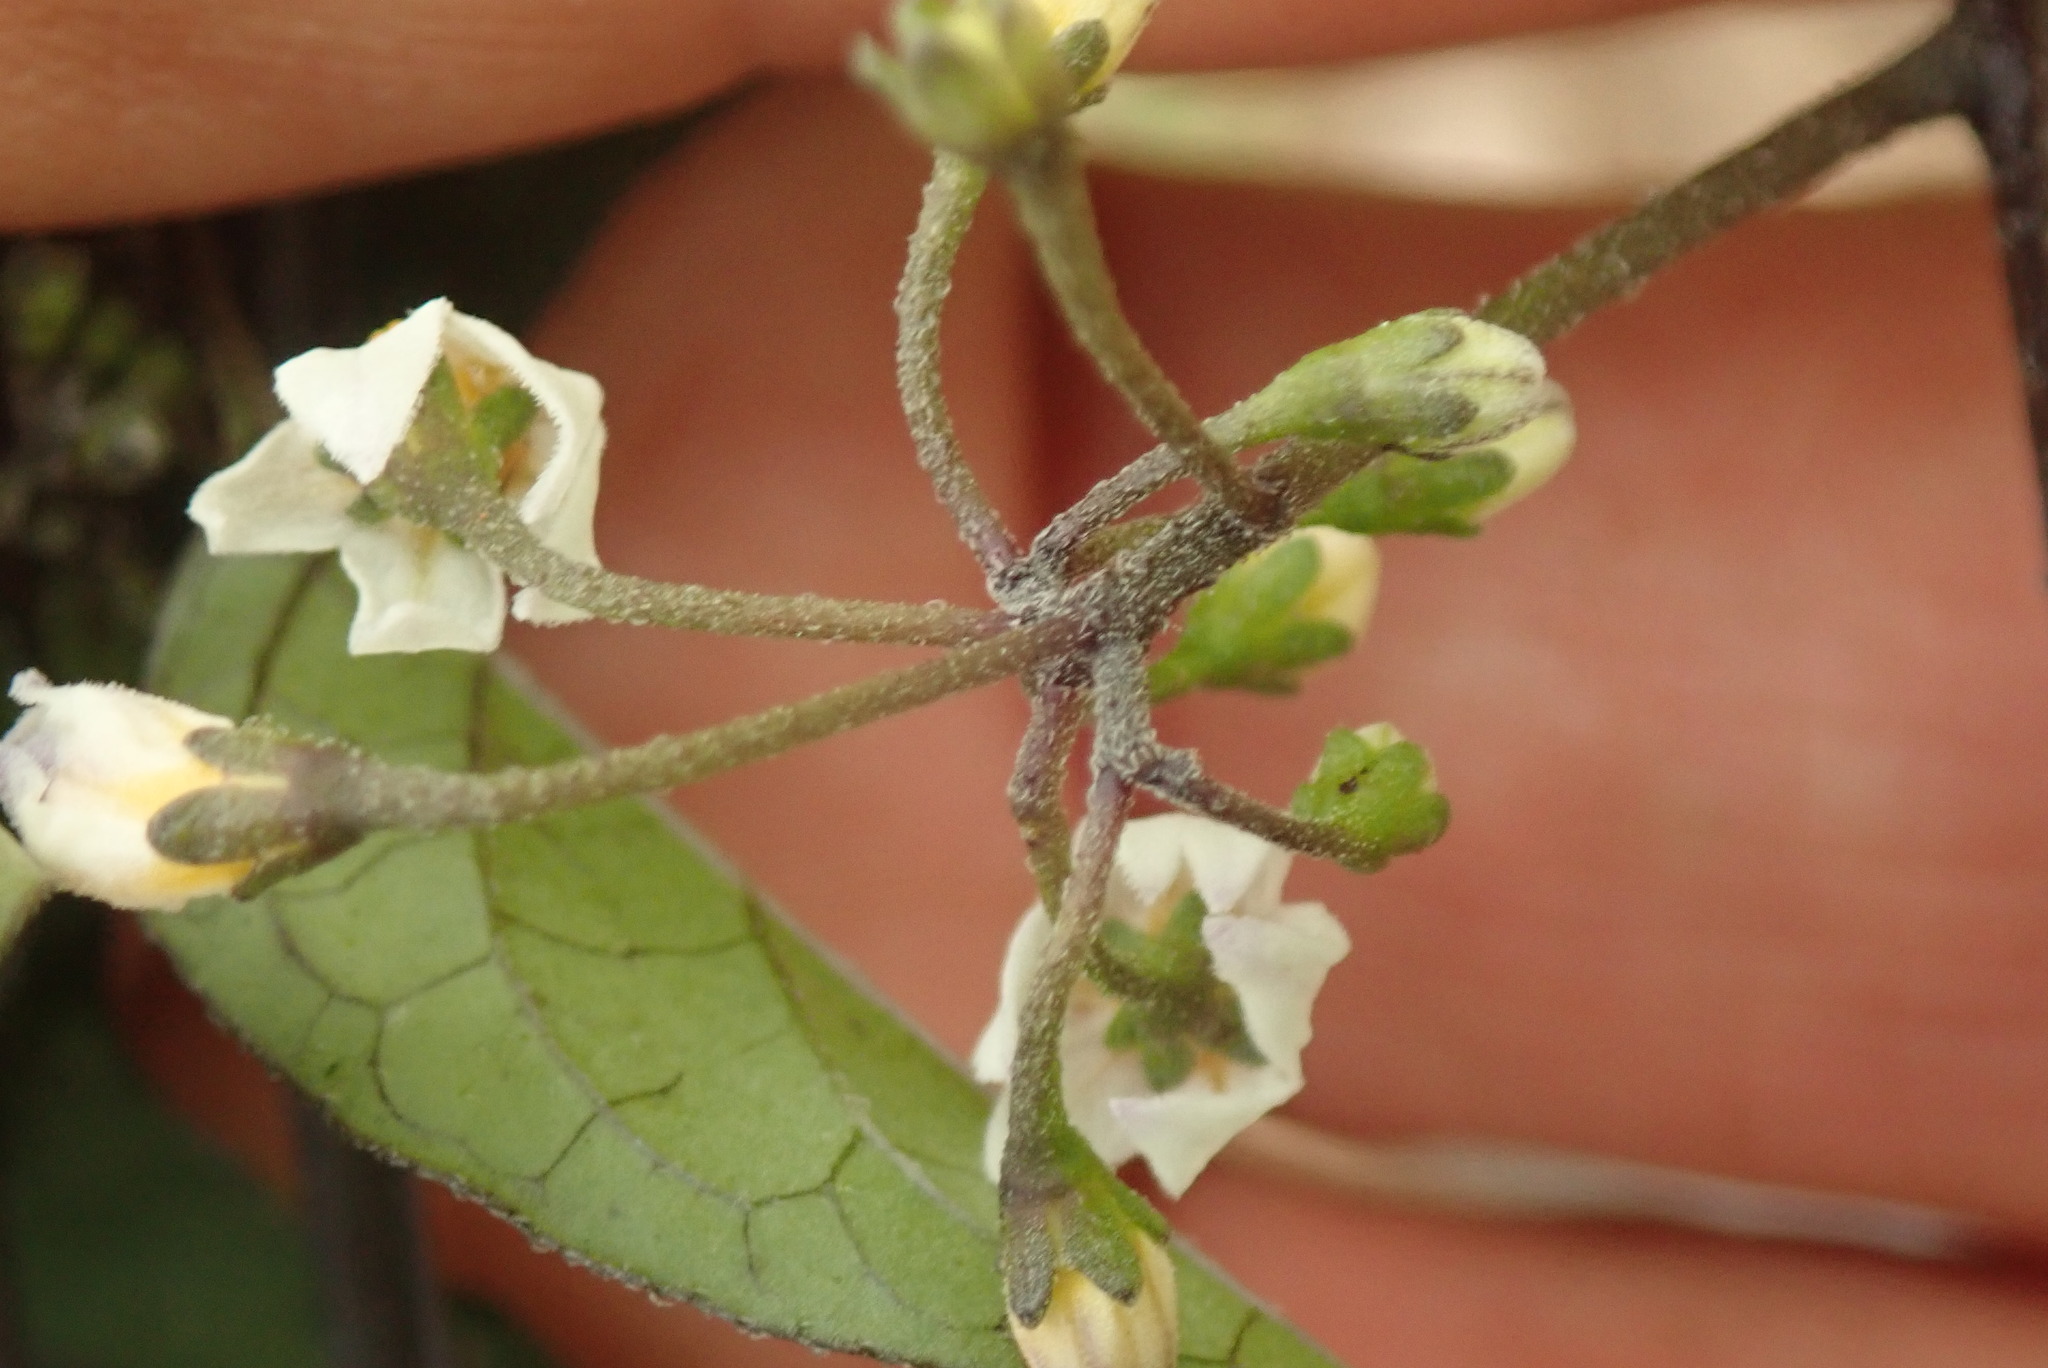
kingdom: Plantae
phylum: Tracheophyta
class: Magnoliopsida
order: Solanales
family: Solanaceae
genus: Solanum
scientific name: Solanum nigrum
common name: Black nightshade
